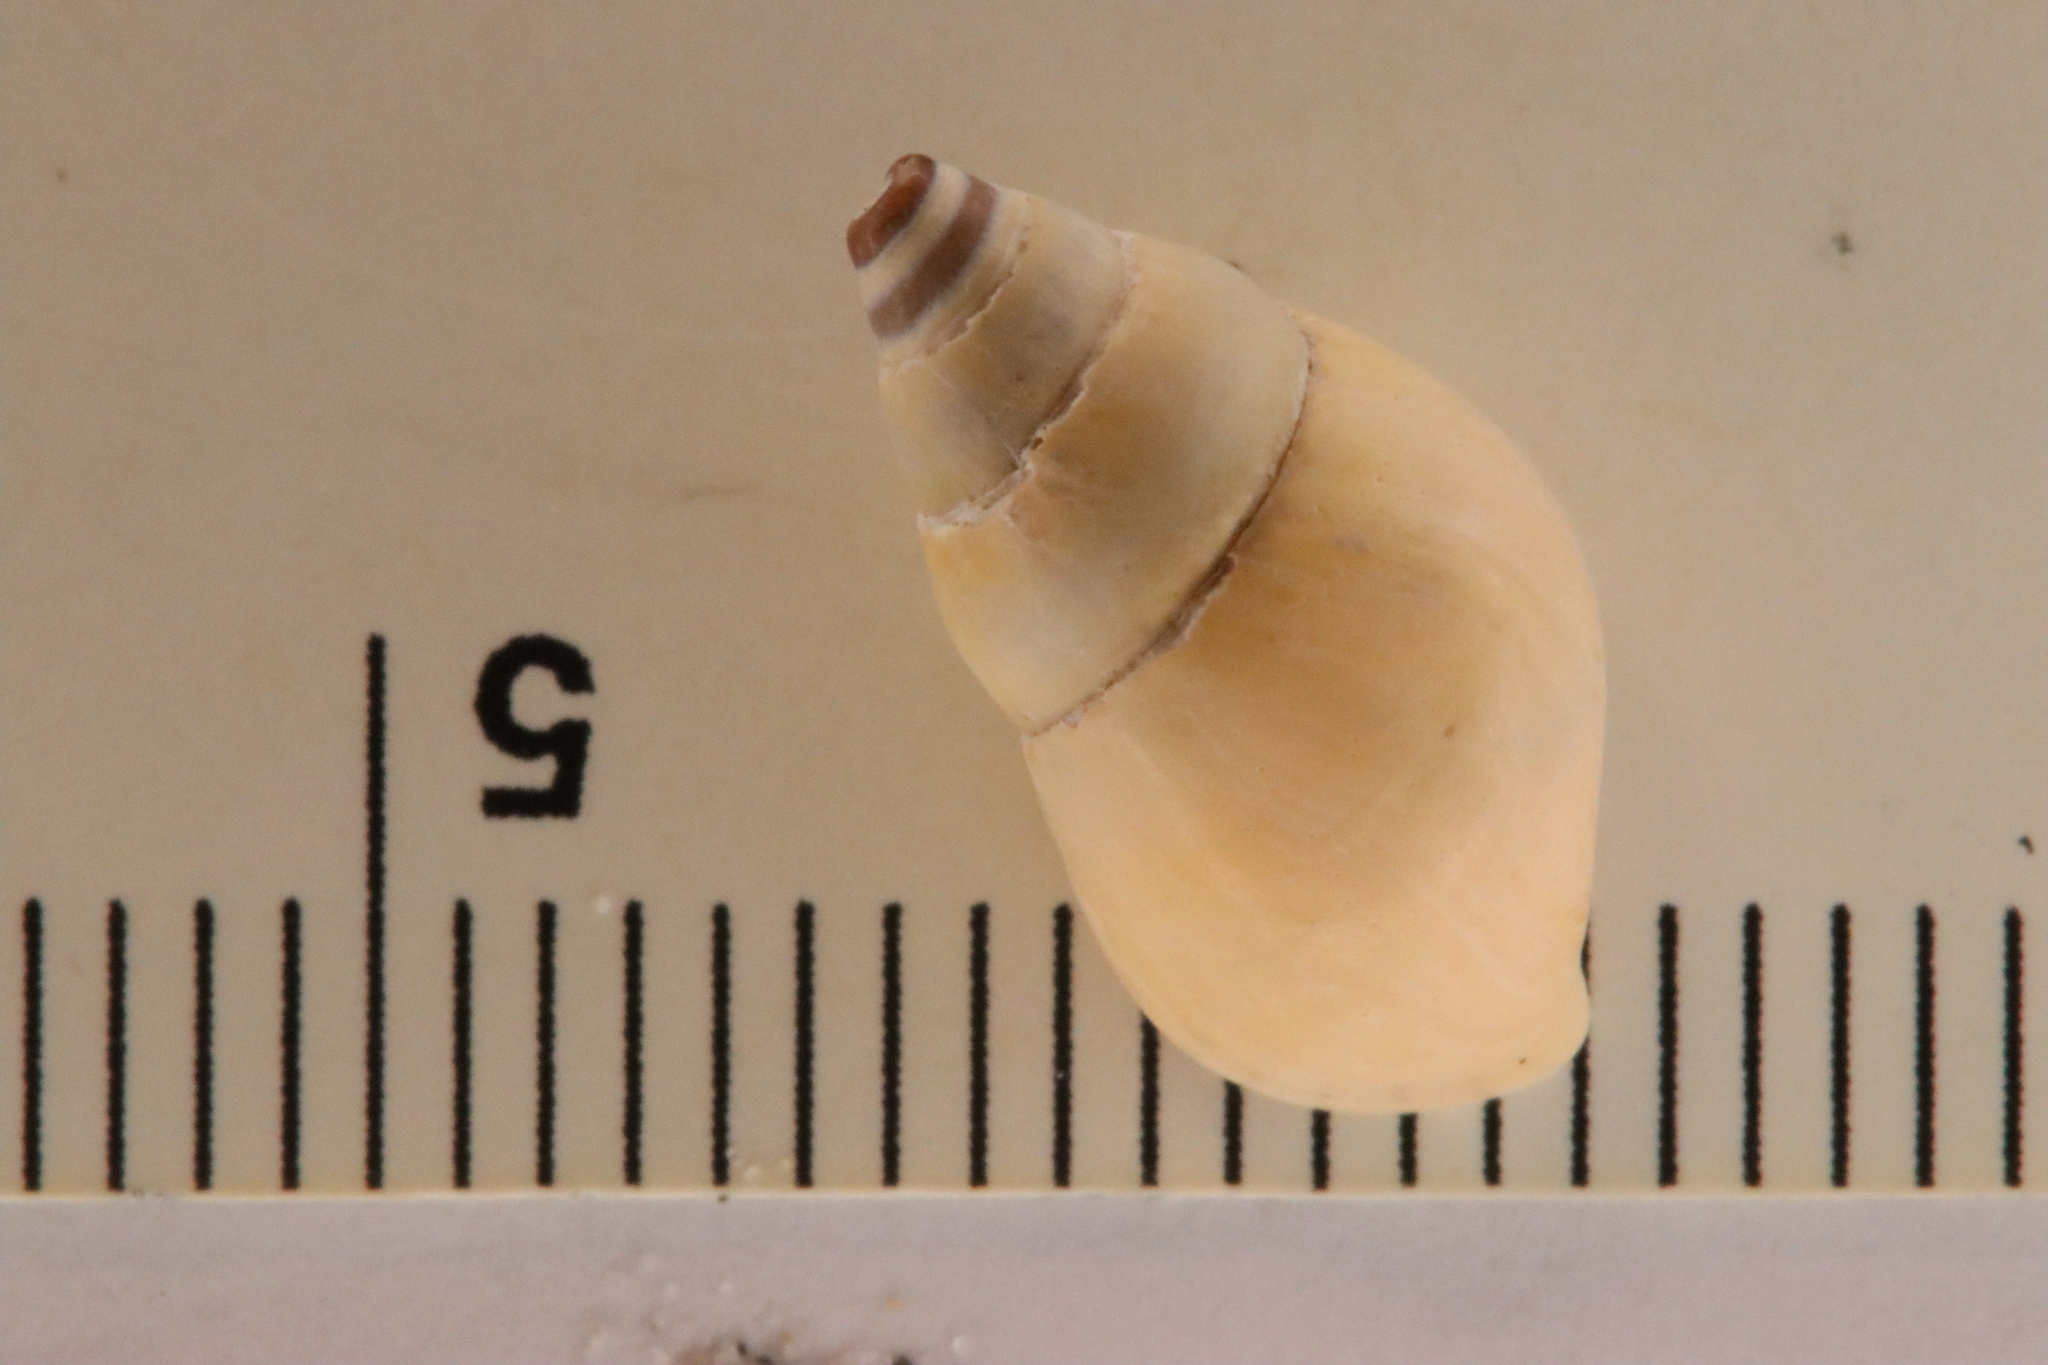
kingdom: Animalia
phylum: Mollusca
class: Gastropoda
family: Pleuroceridae
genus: Elimia
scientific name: Elimia livescens
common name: Liver elimia
